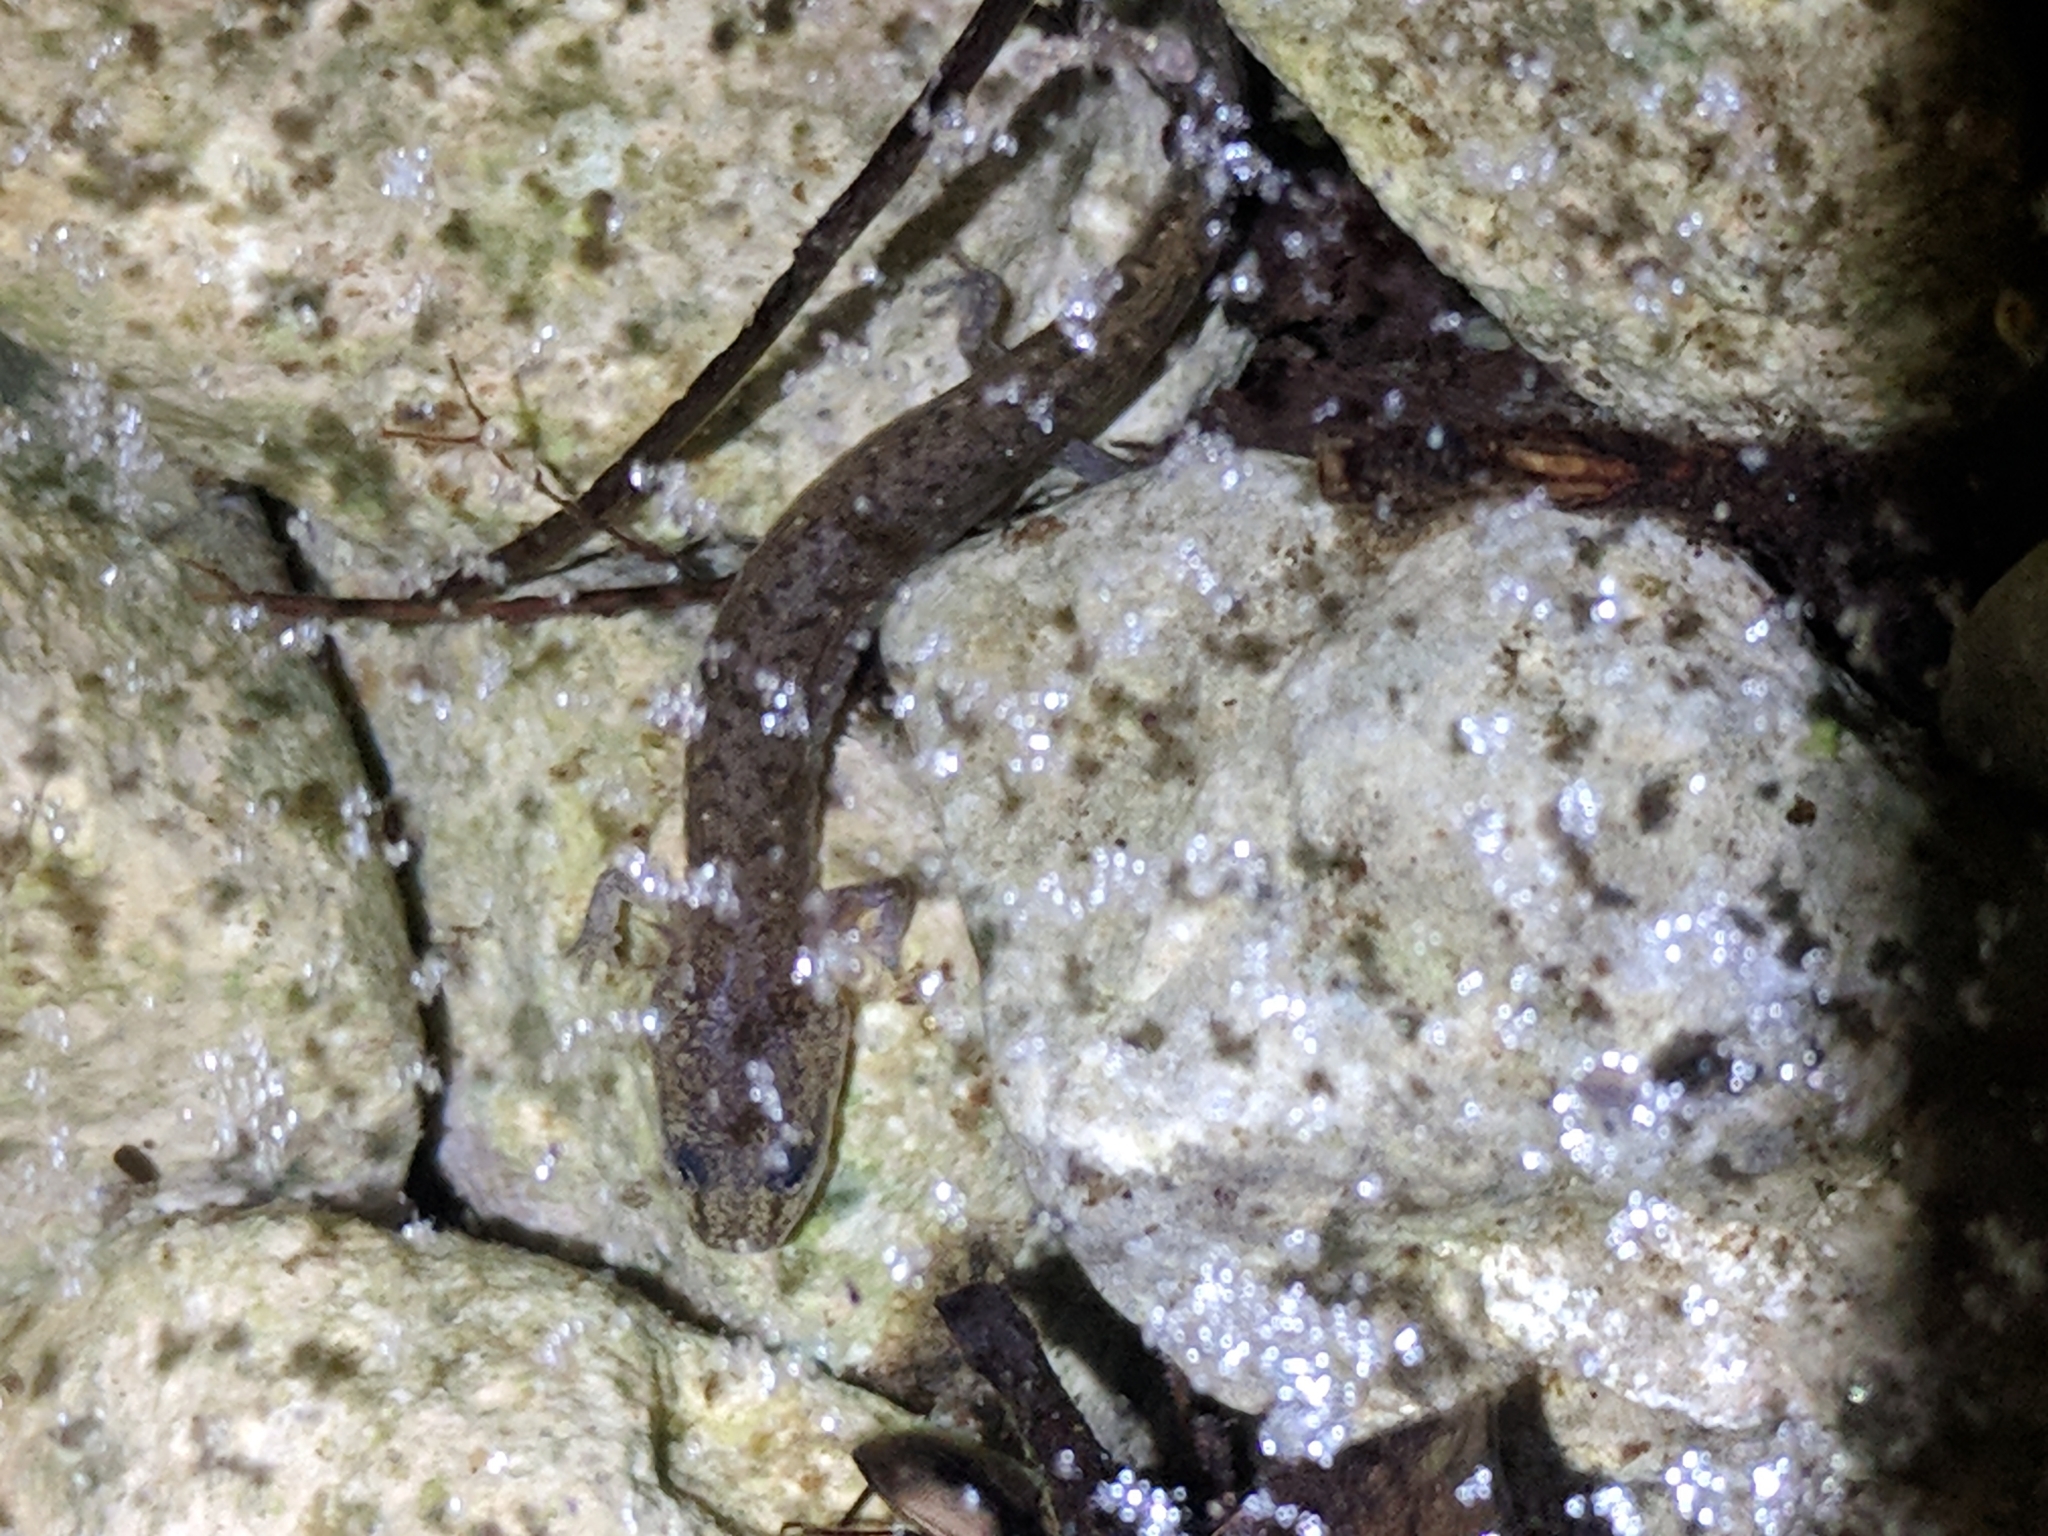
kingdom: Animalia
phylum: Chordata
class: Amphibia
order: Caudata
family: Plethodontidae
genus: Eurycea
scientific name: Eurycea troglodytes
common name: Valdina farms salamander
